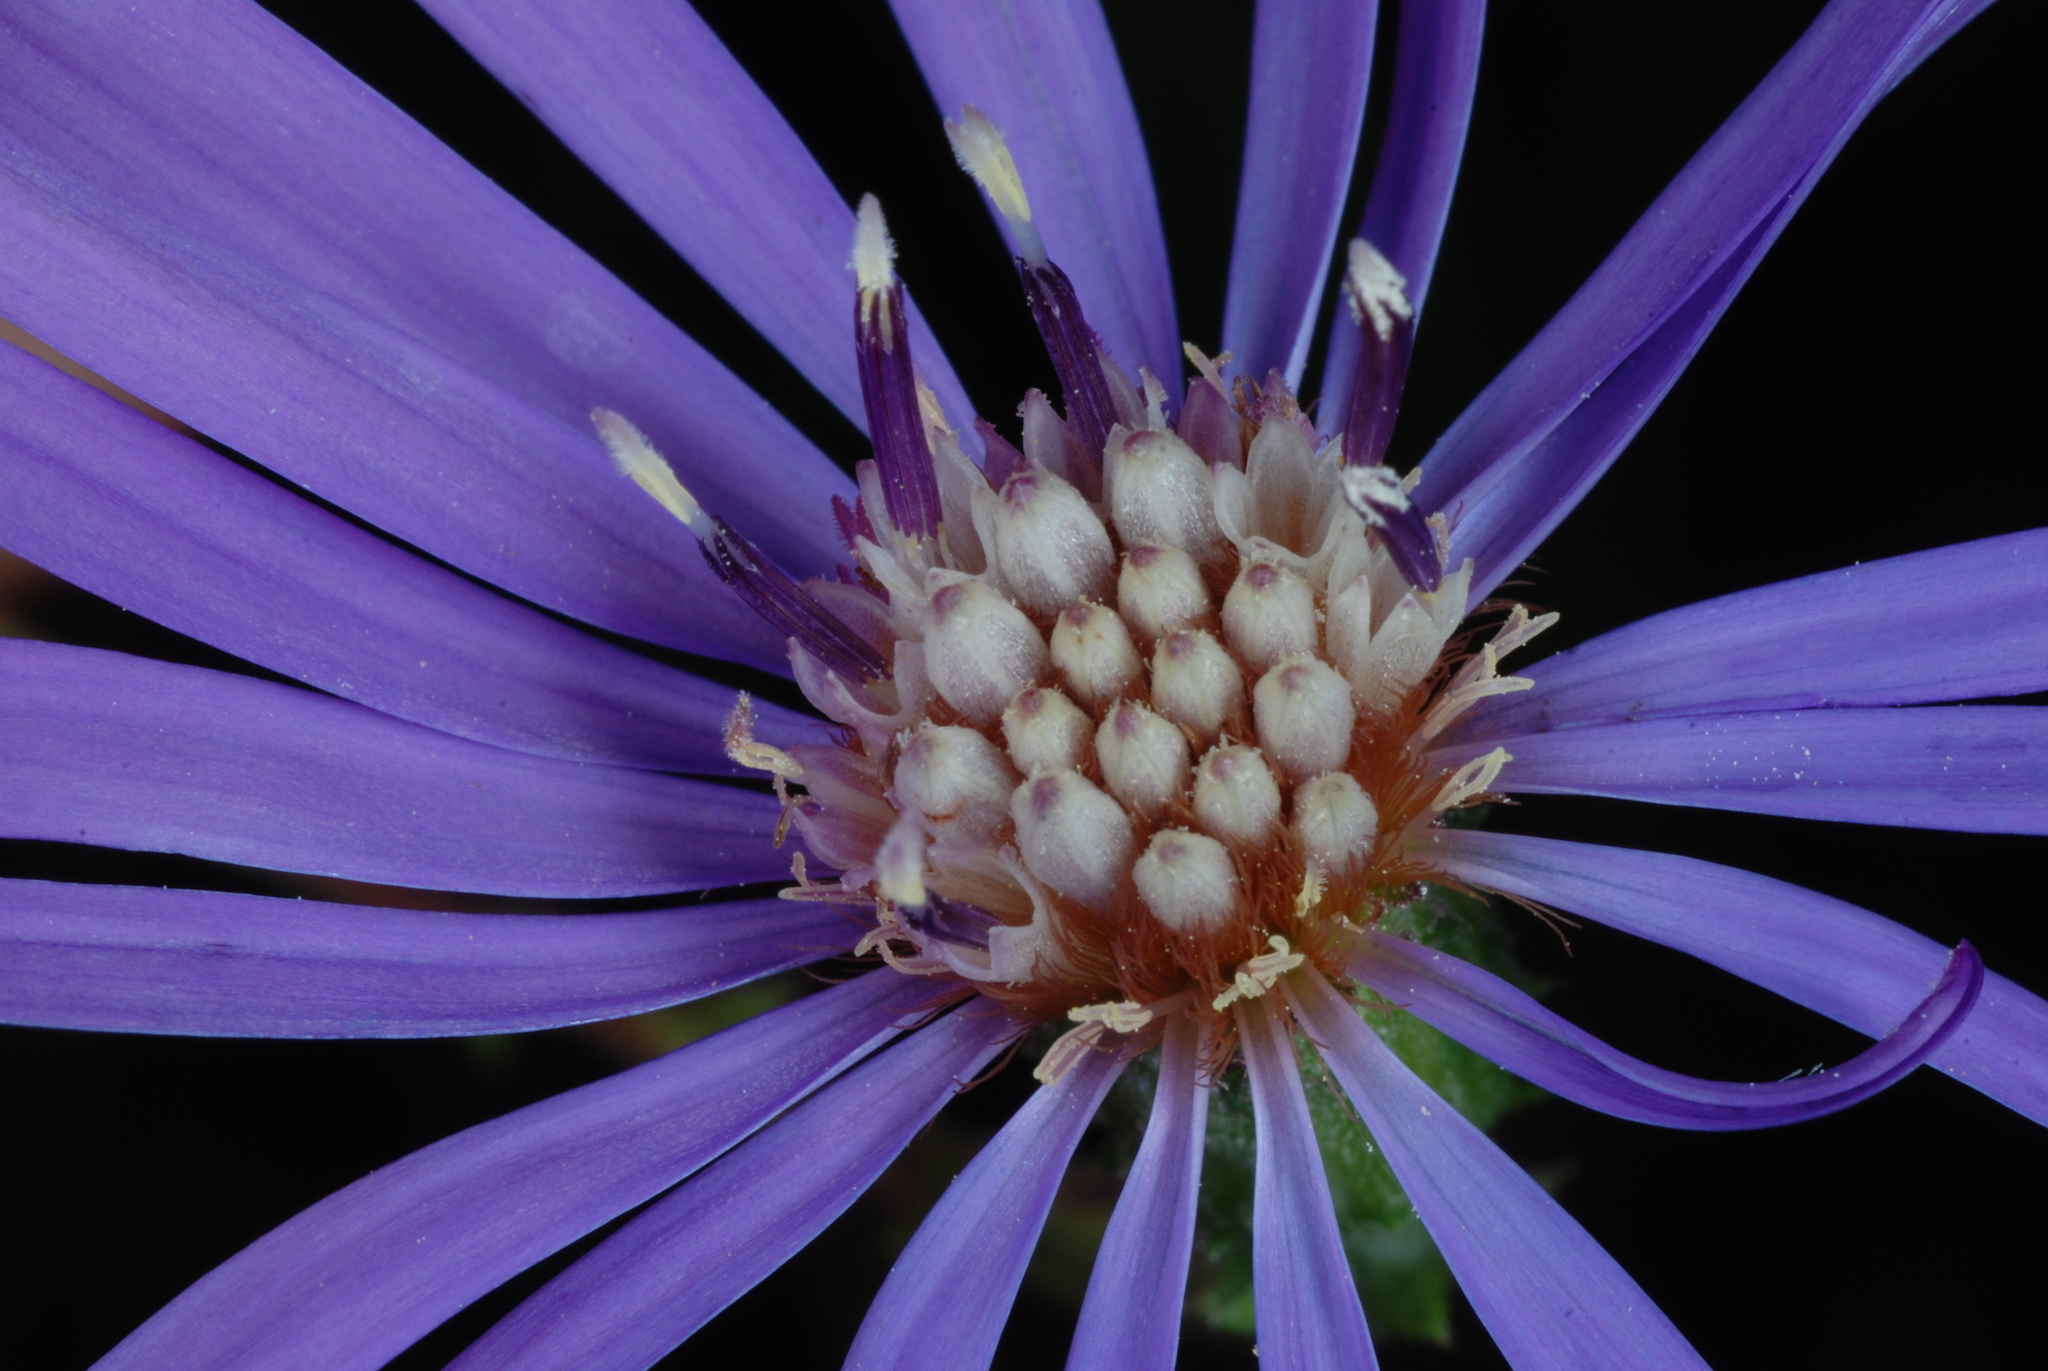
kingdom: Plantae
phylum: Tracheophyta
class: Magnoliopsida
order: Asterales
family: Asteraceae
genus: Symphyotrichum
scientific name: Symphyotrichum georgianum
